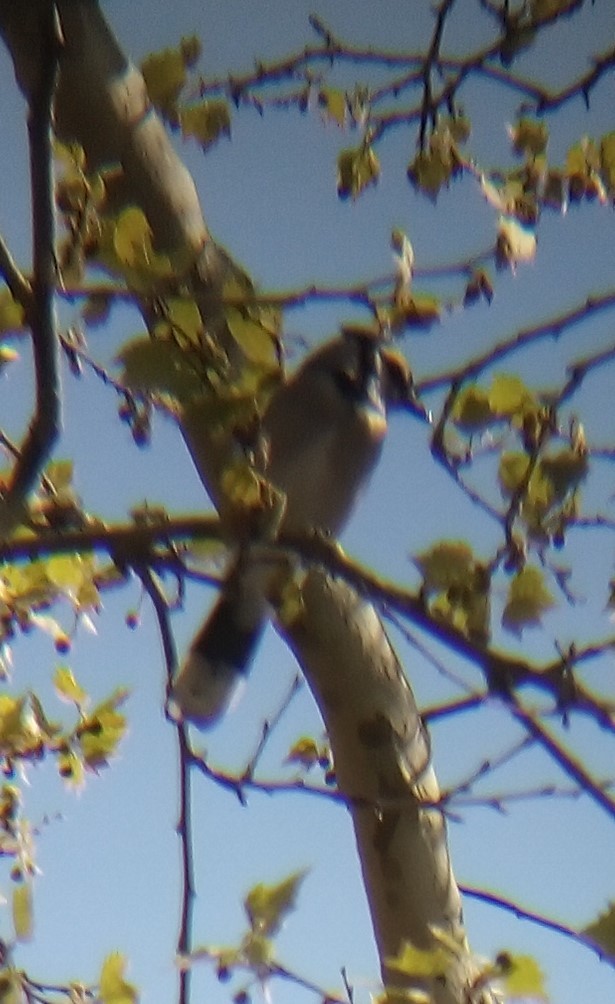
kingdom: Animalia
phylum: Chordata
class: Aves
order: Passeriformes
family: Corvidae
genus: Cyanocitta
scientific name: Cyanocitta cristata
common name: Blue jay
